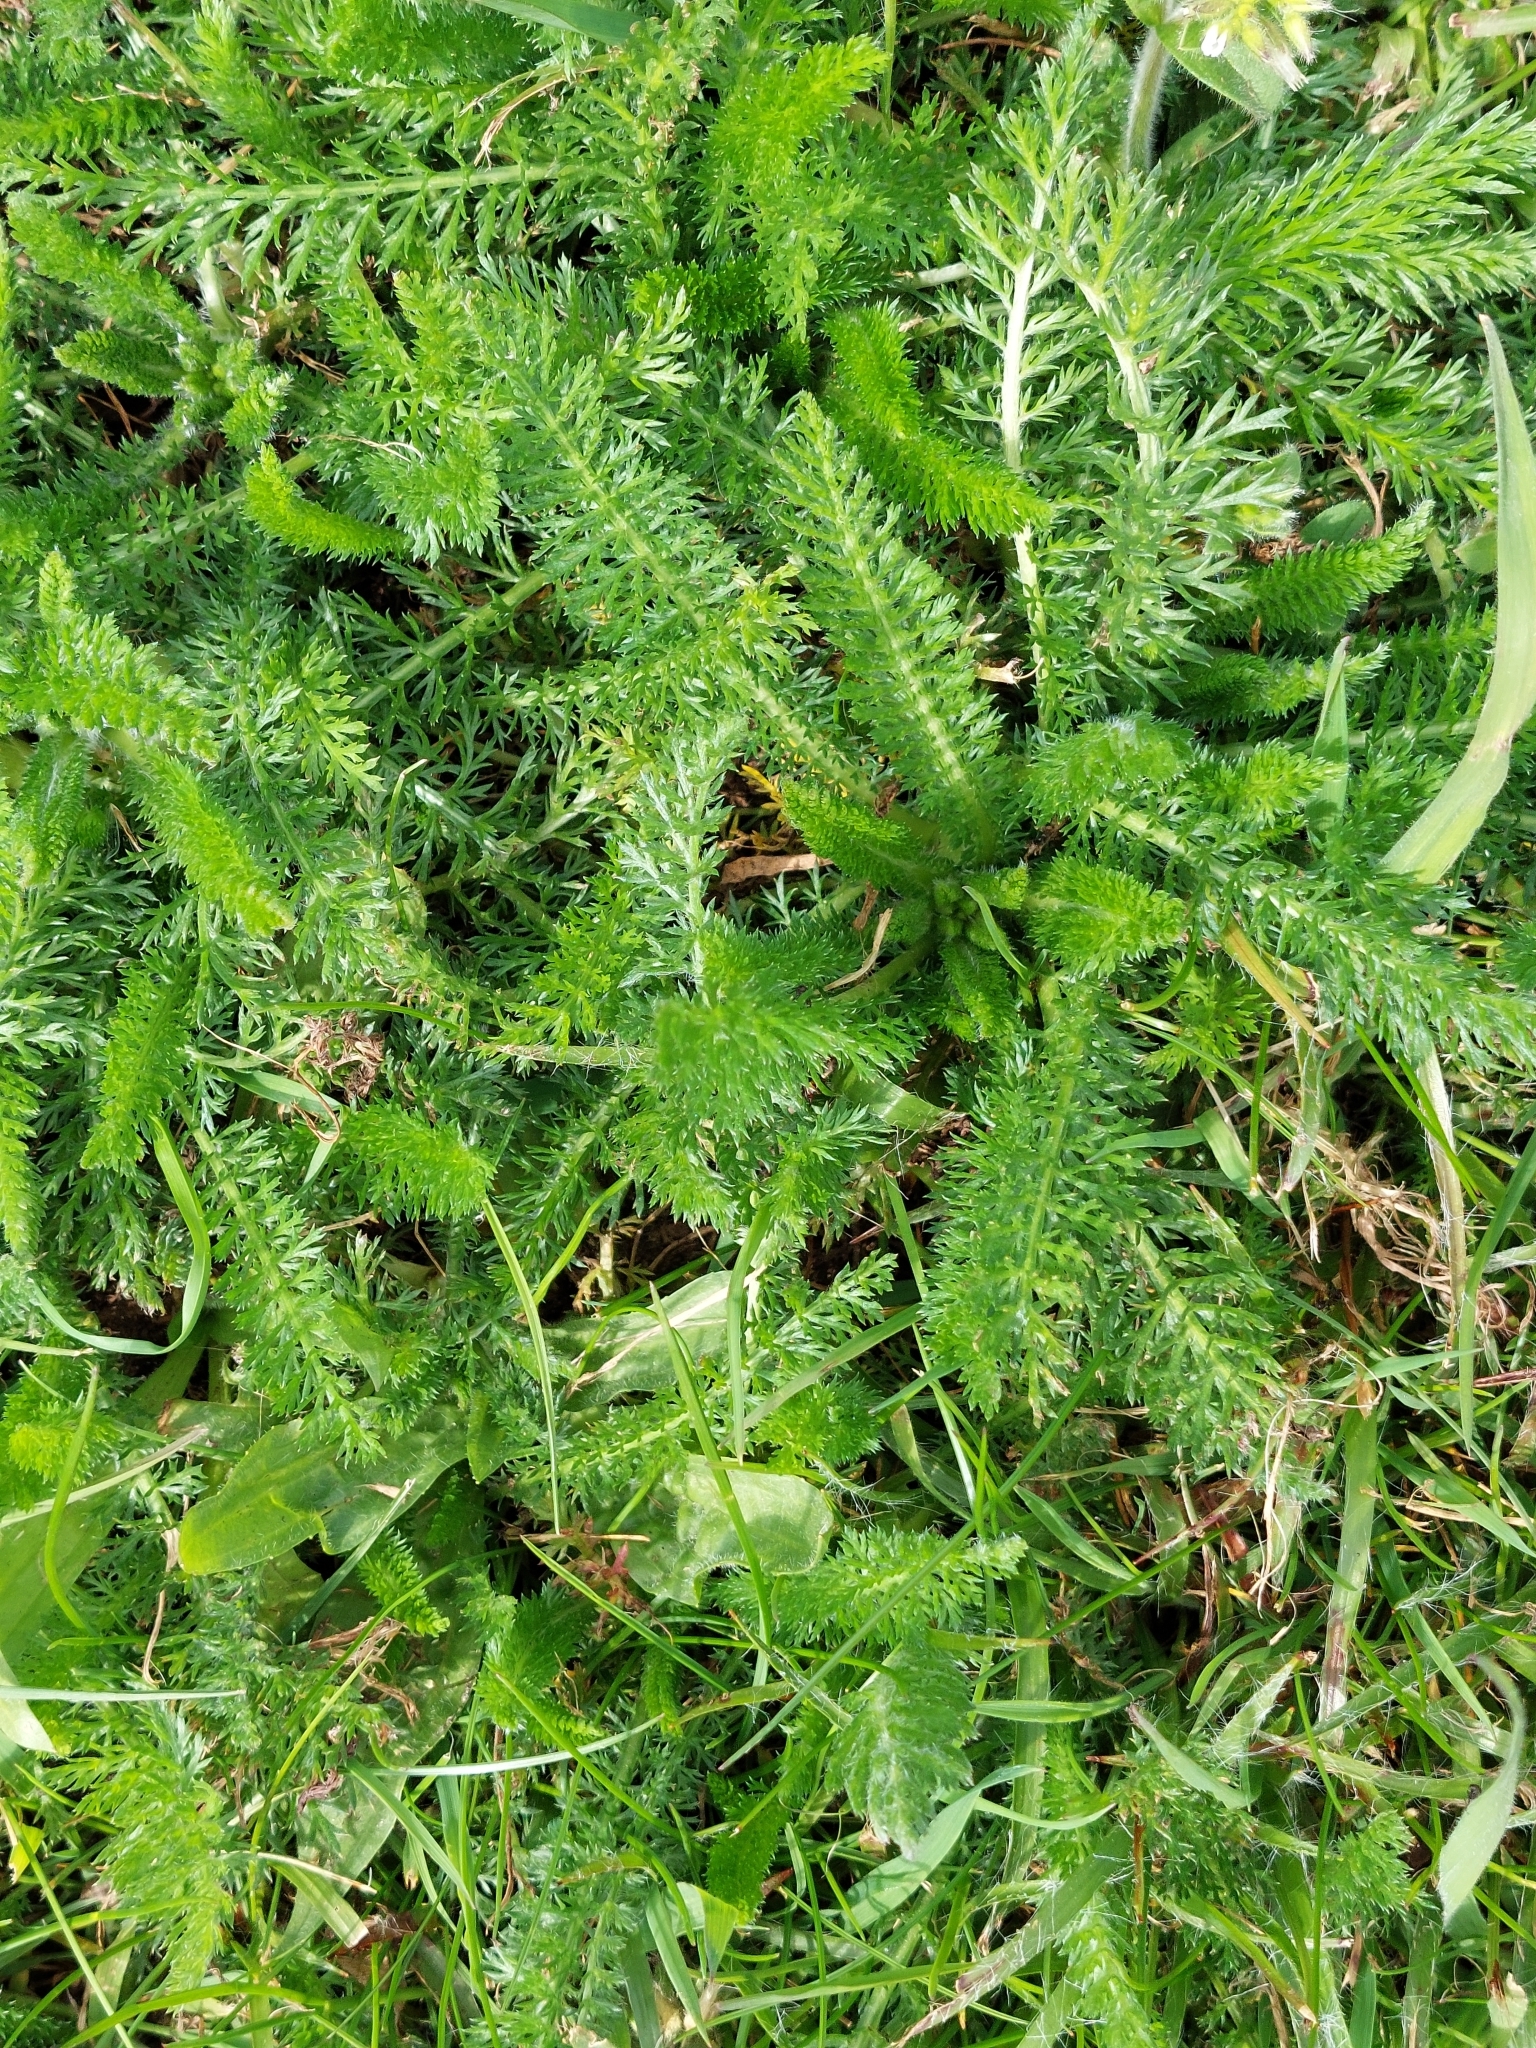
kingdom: Plantae
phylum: Tracheophyta
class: Magnoliopsida
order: Asterales
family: Asteraceae
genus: Achillea
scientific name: Achillea millefolium
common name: Yarrow
